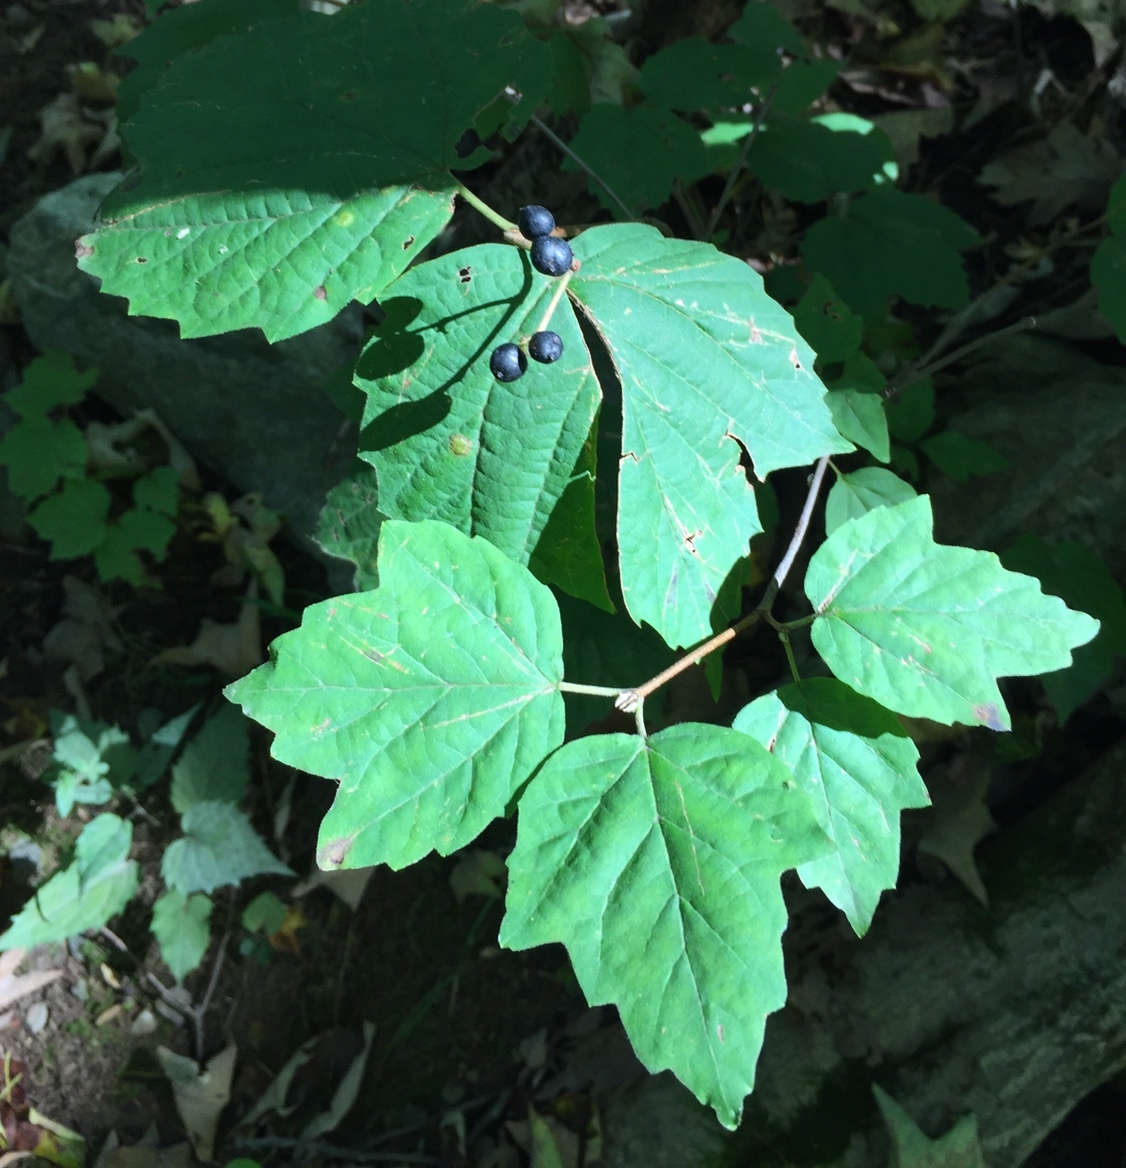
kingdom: Plantae
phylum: Tracheophyta
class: Magnoliopsida
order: Dipsacales
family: Viburnaceae
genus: Viburnum
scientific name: Viburnum acerifolium
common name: Dockmackie
